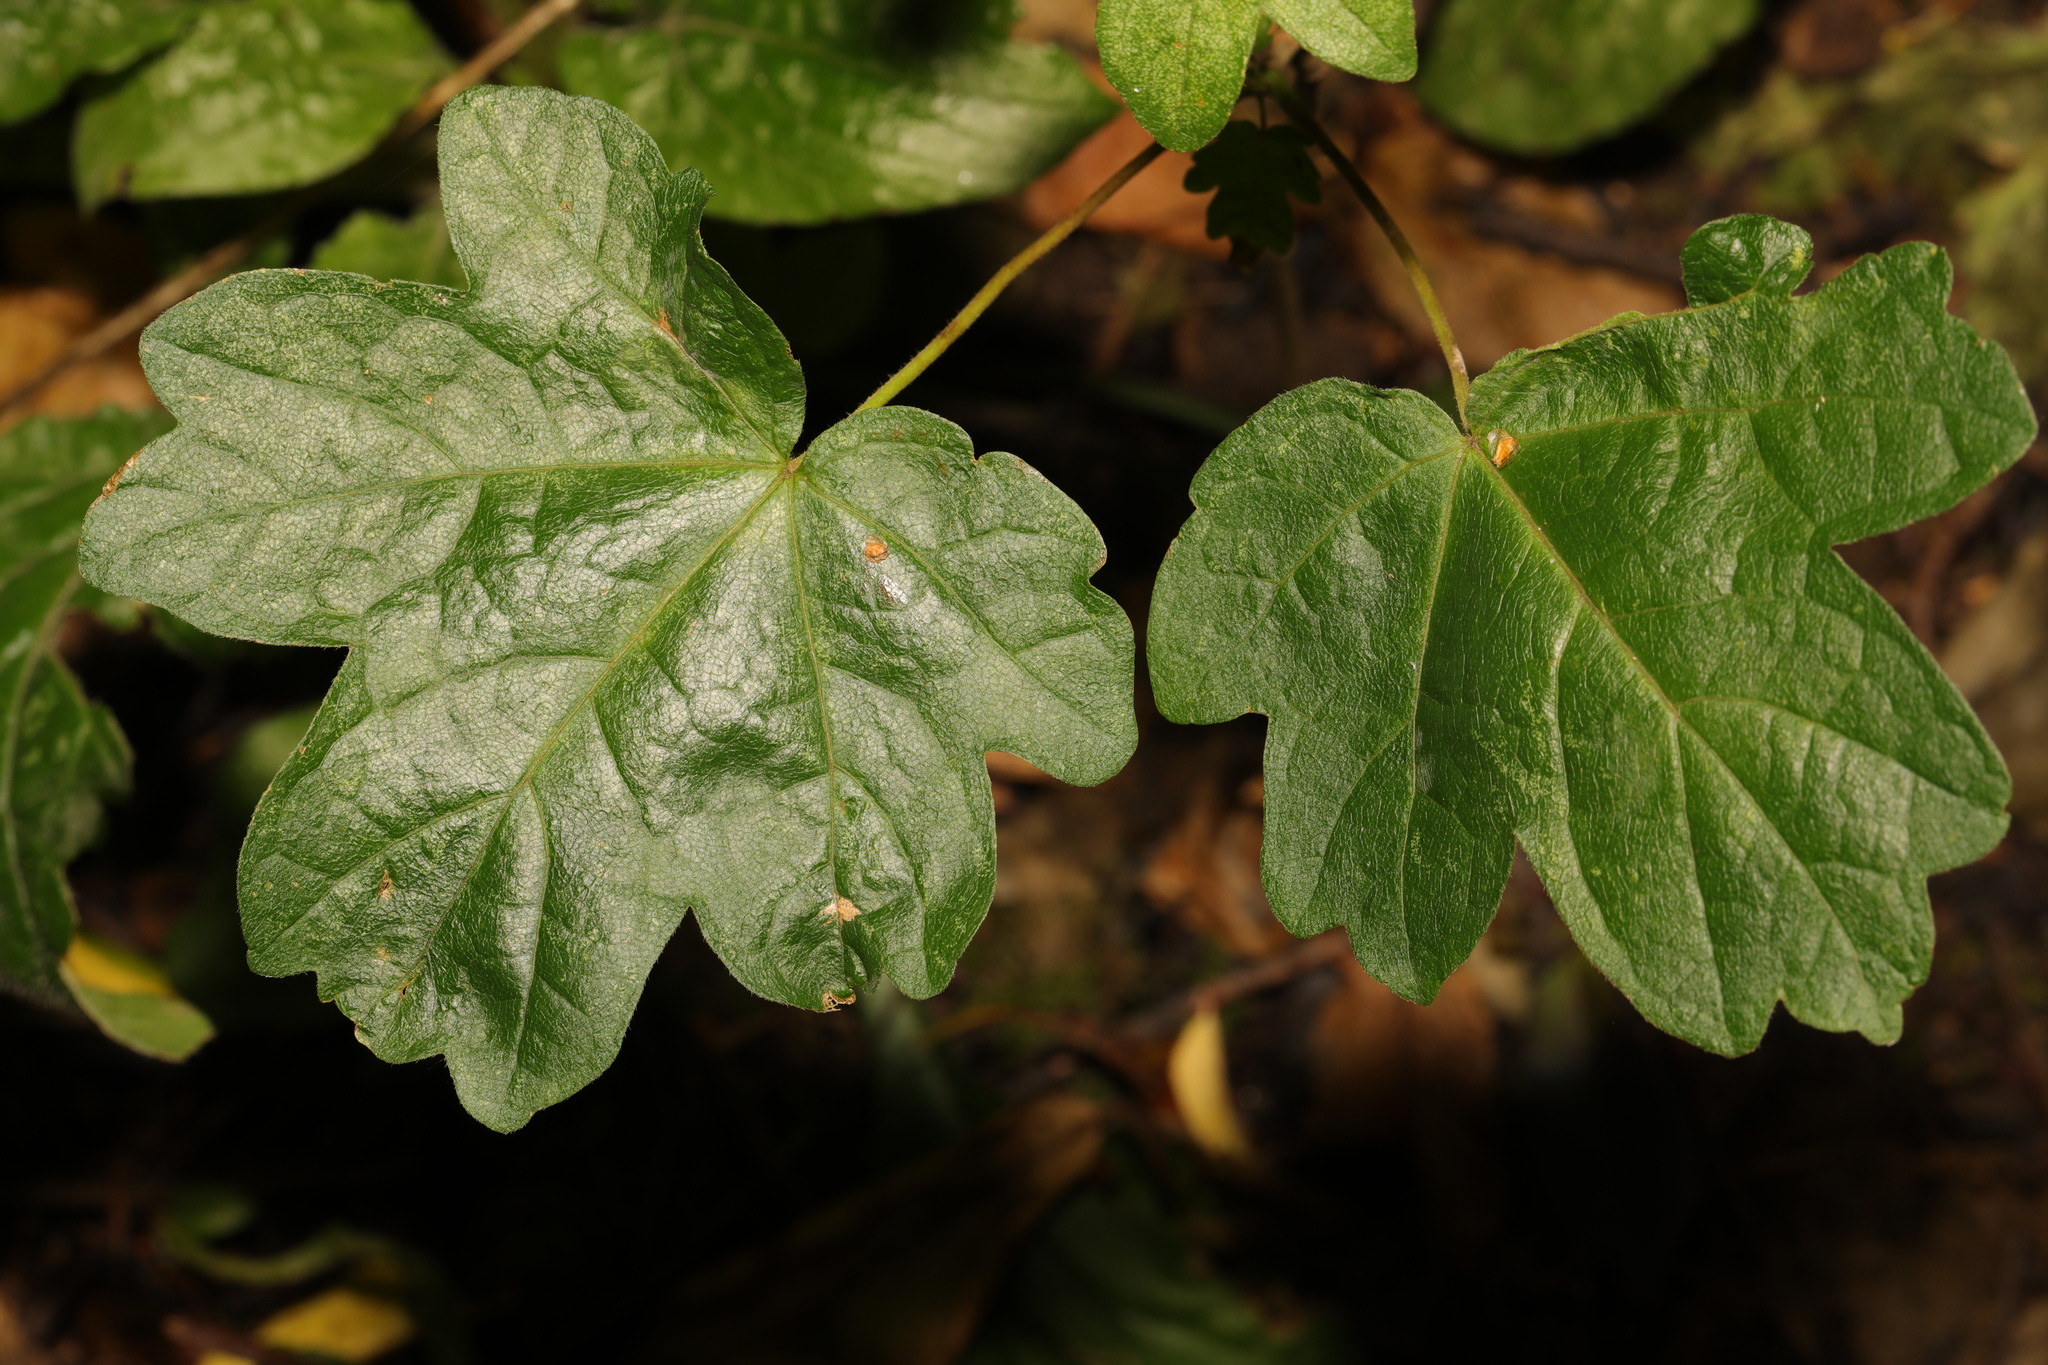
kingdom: Plantae
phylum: Tracheophyta
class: Magnoliopsida
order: Sapindales
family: Sapindaceae
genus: Acer
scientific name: Acer campestre
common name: Field maple
